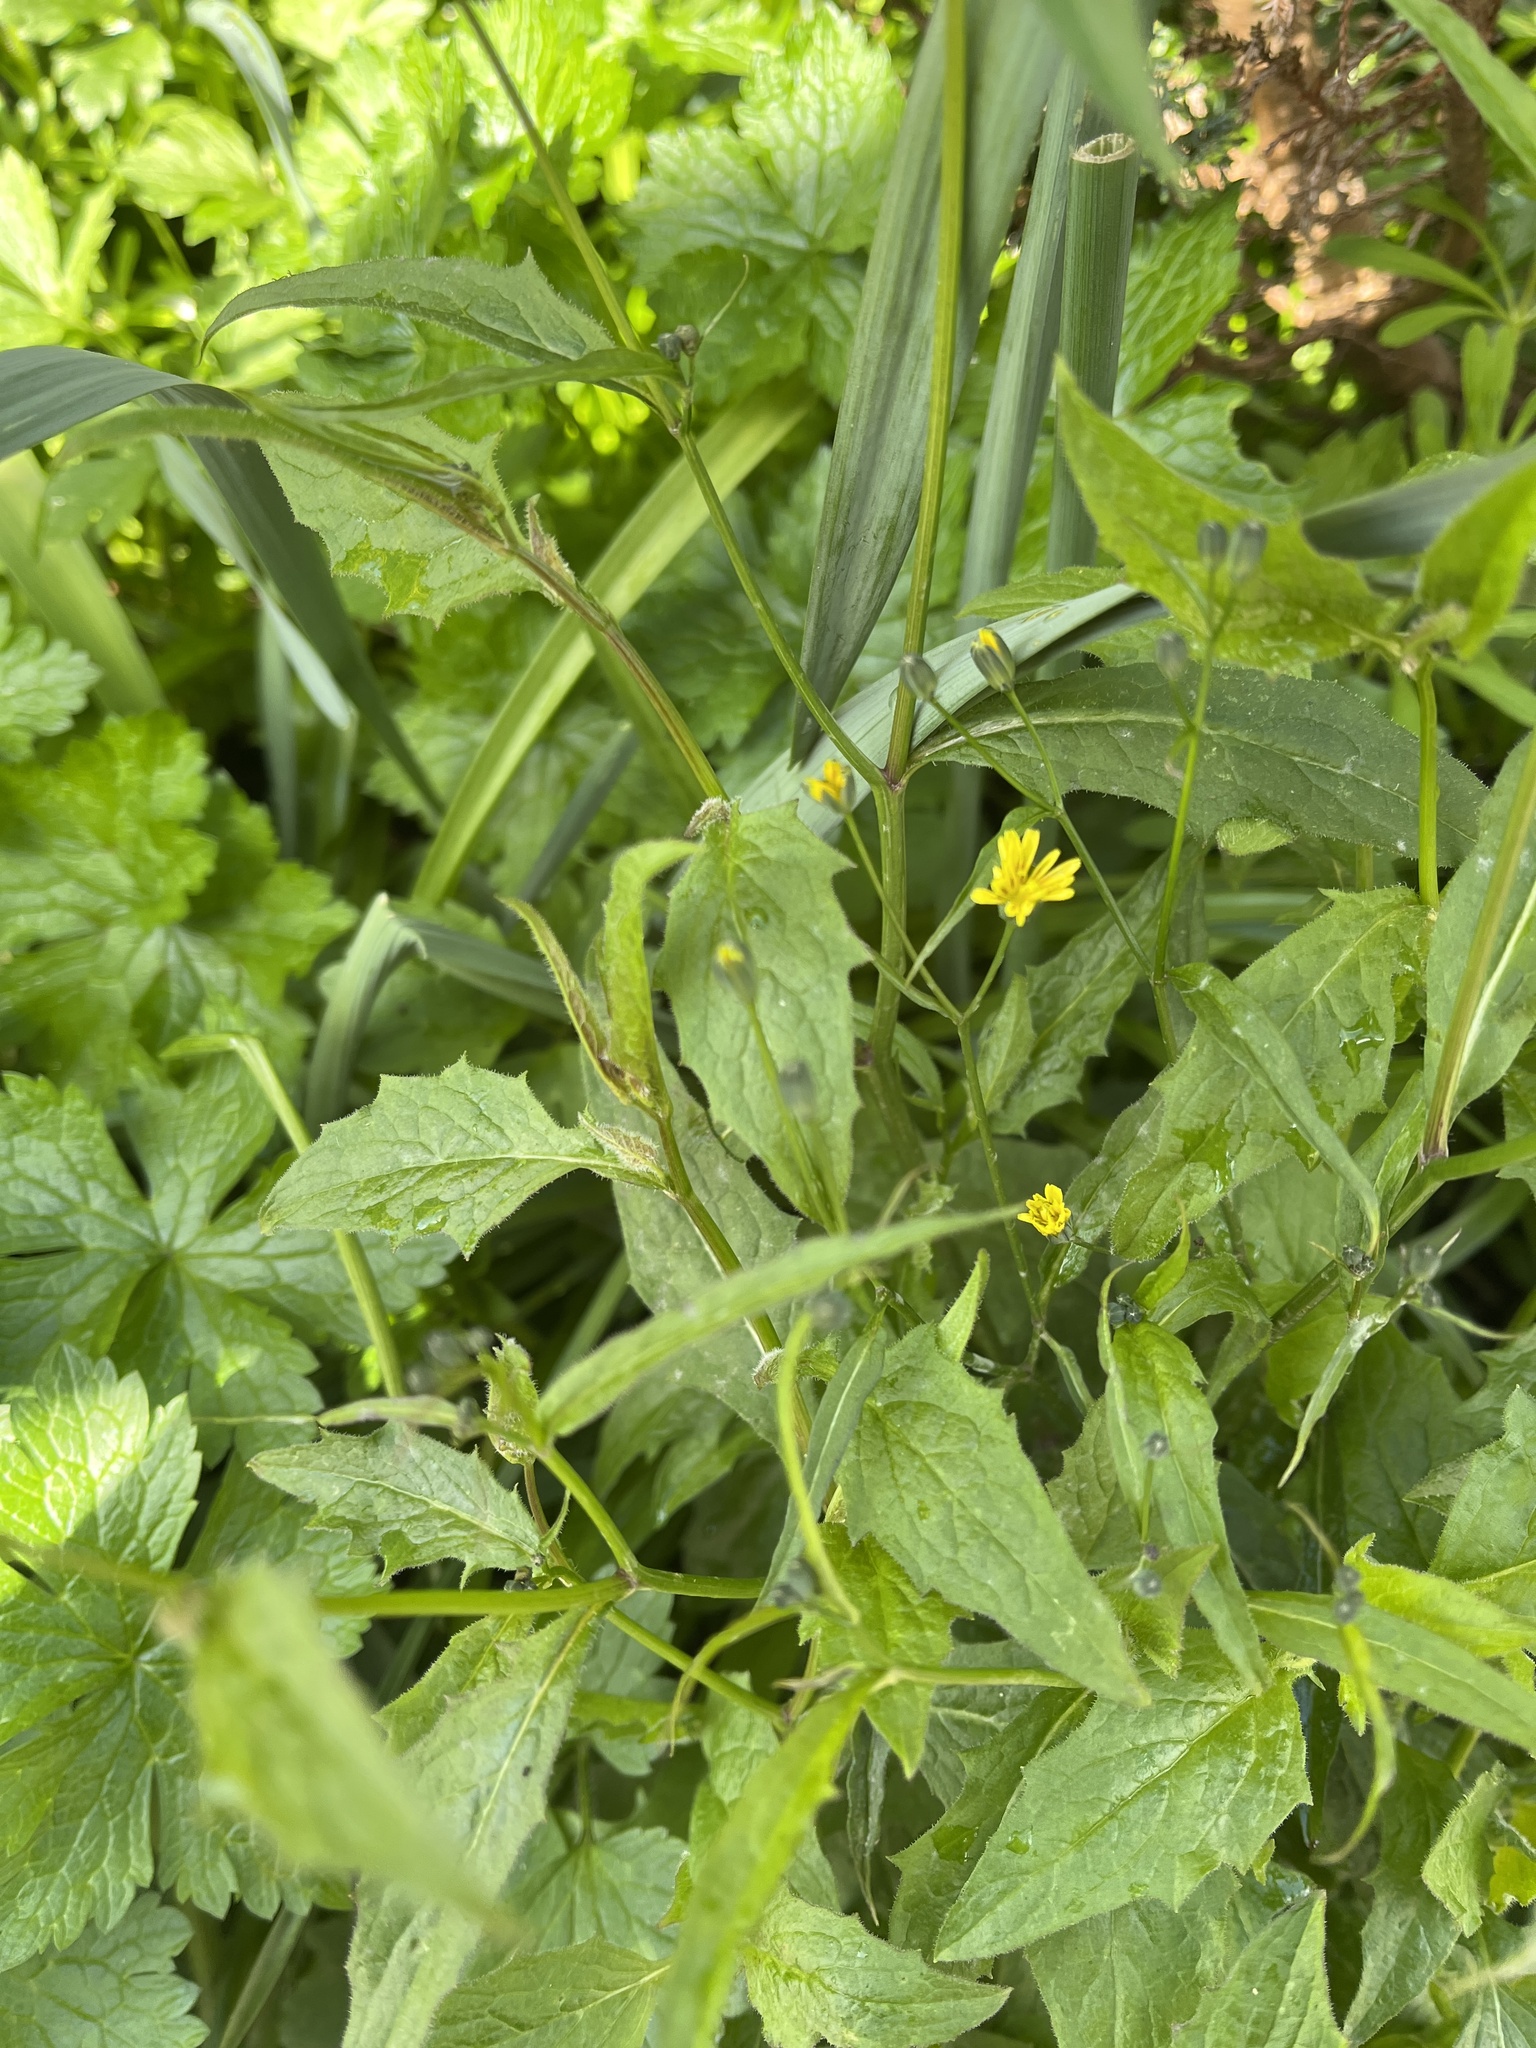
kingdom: Plantae
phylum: Tracheophyta
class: Magnoliopsida
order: Asterales
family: Asteraceae
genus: Lapsana
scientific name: Lapsana communis
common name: Nipplewort
